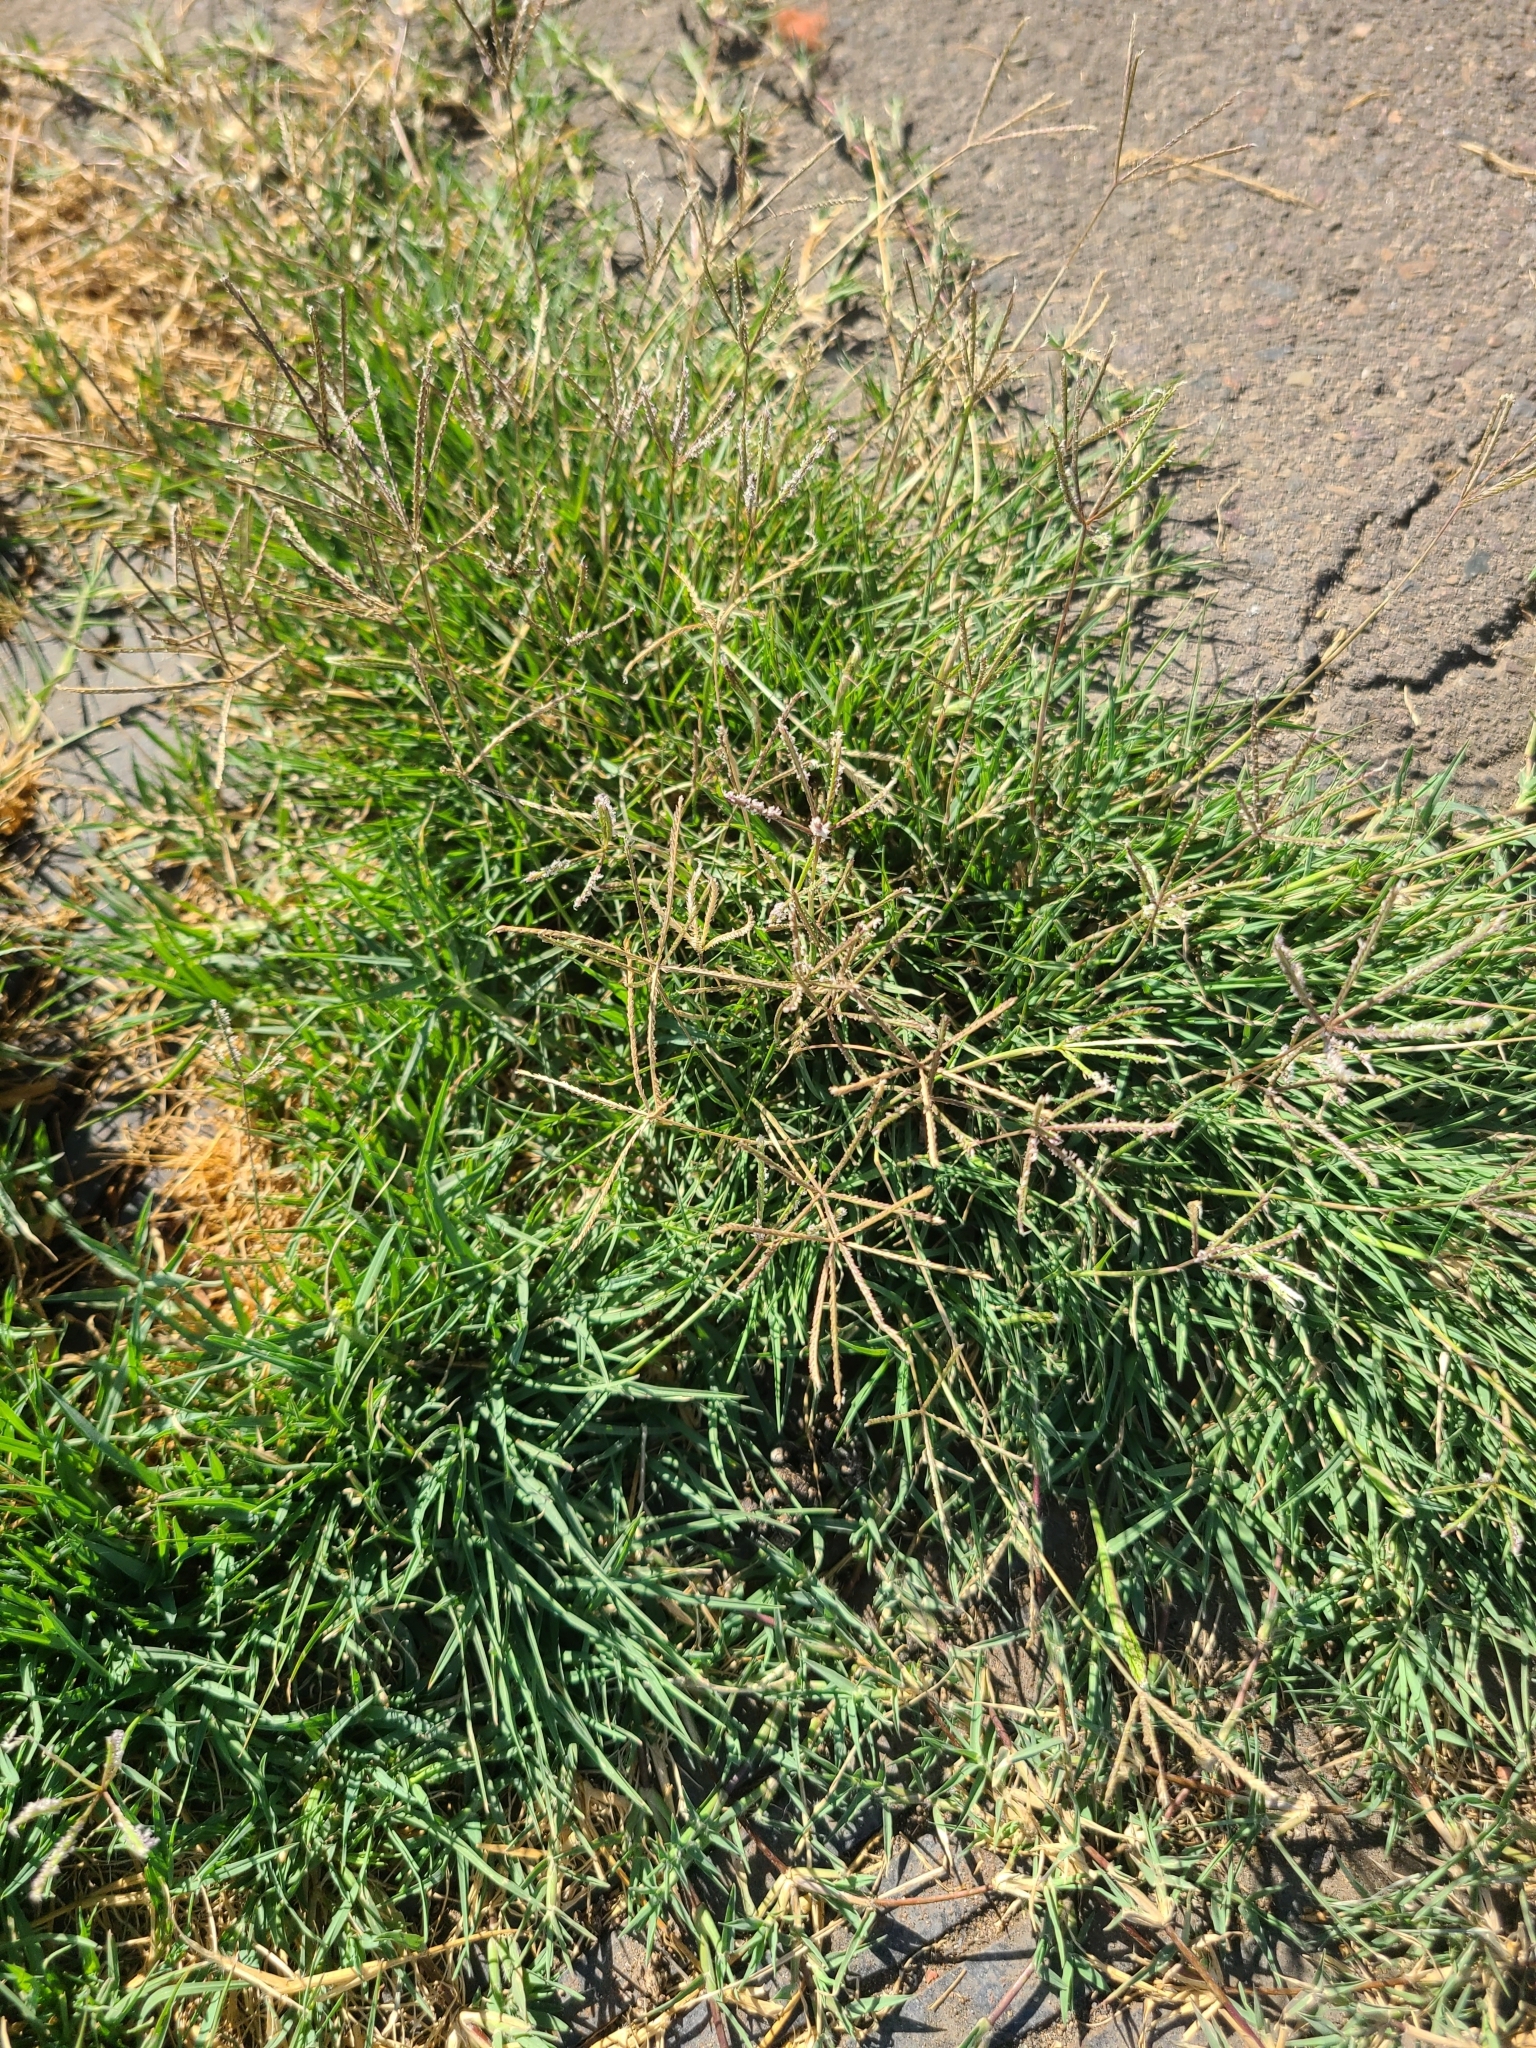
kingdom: Plantae
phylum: Tracheophyta
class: Liliopsida
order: Poales
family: Poaceae
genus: Cynodon
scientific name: Cynodon dactylon
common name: Bermuda grass
